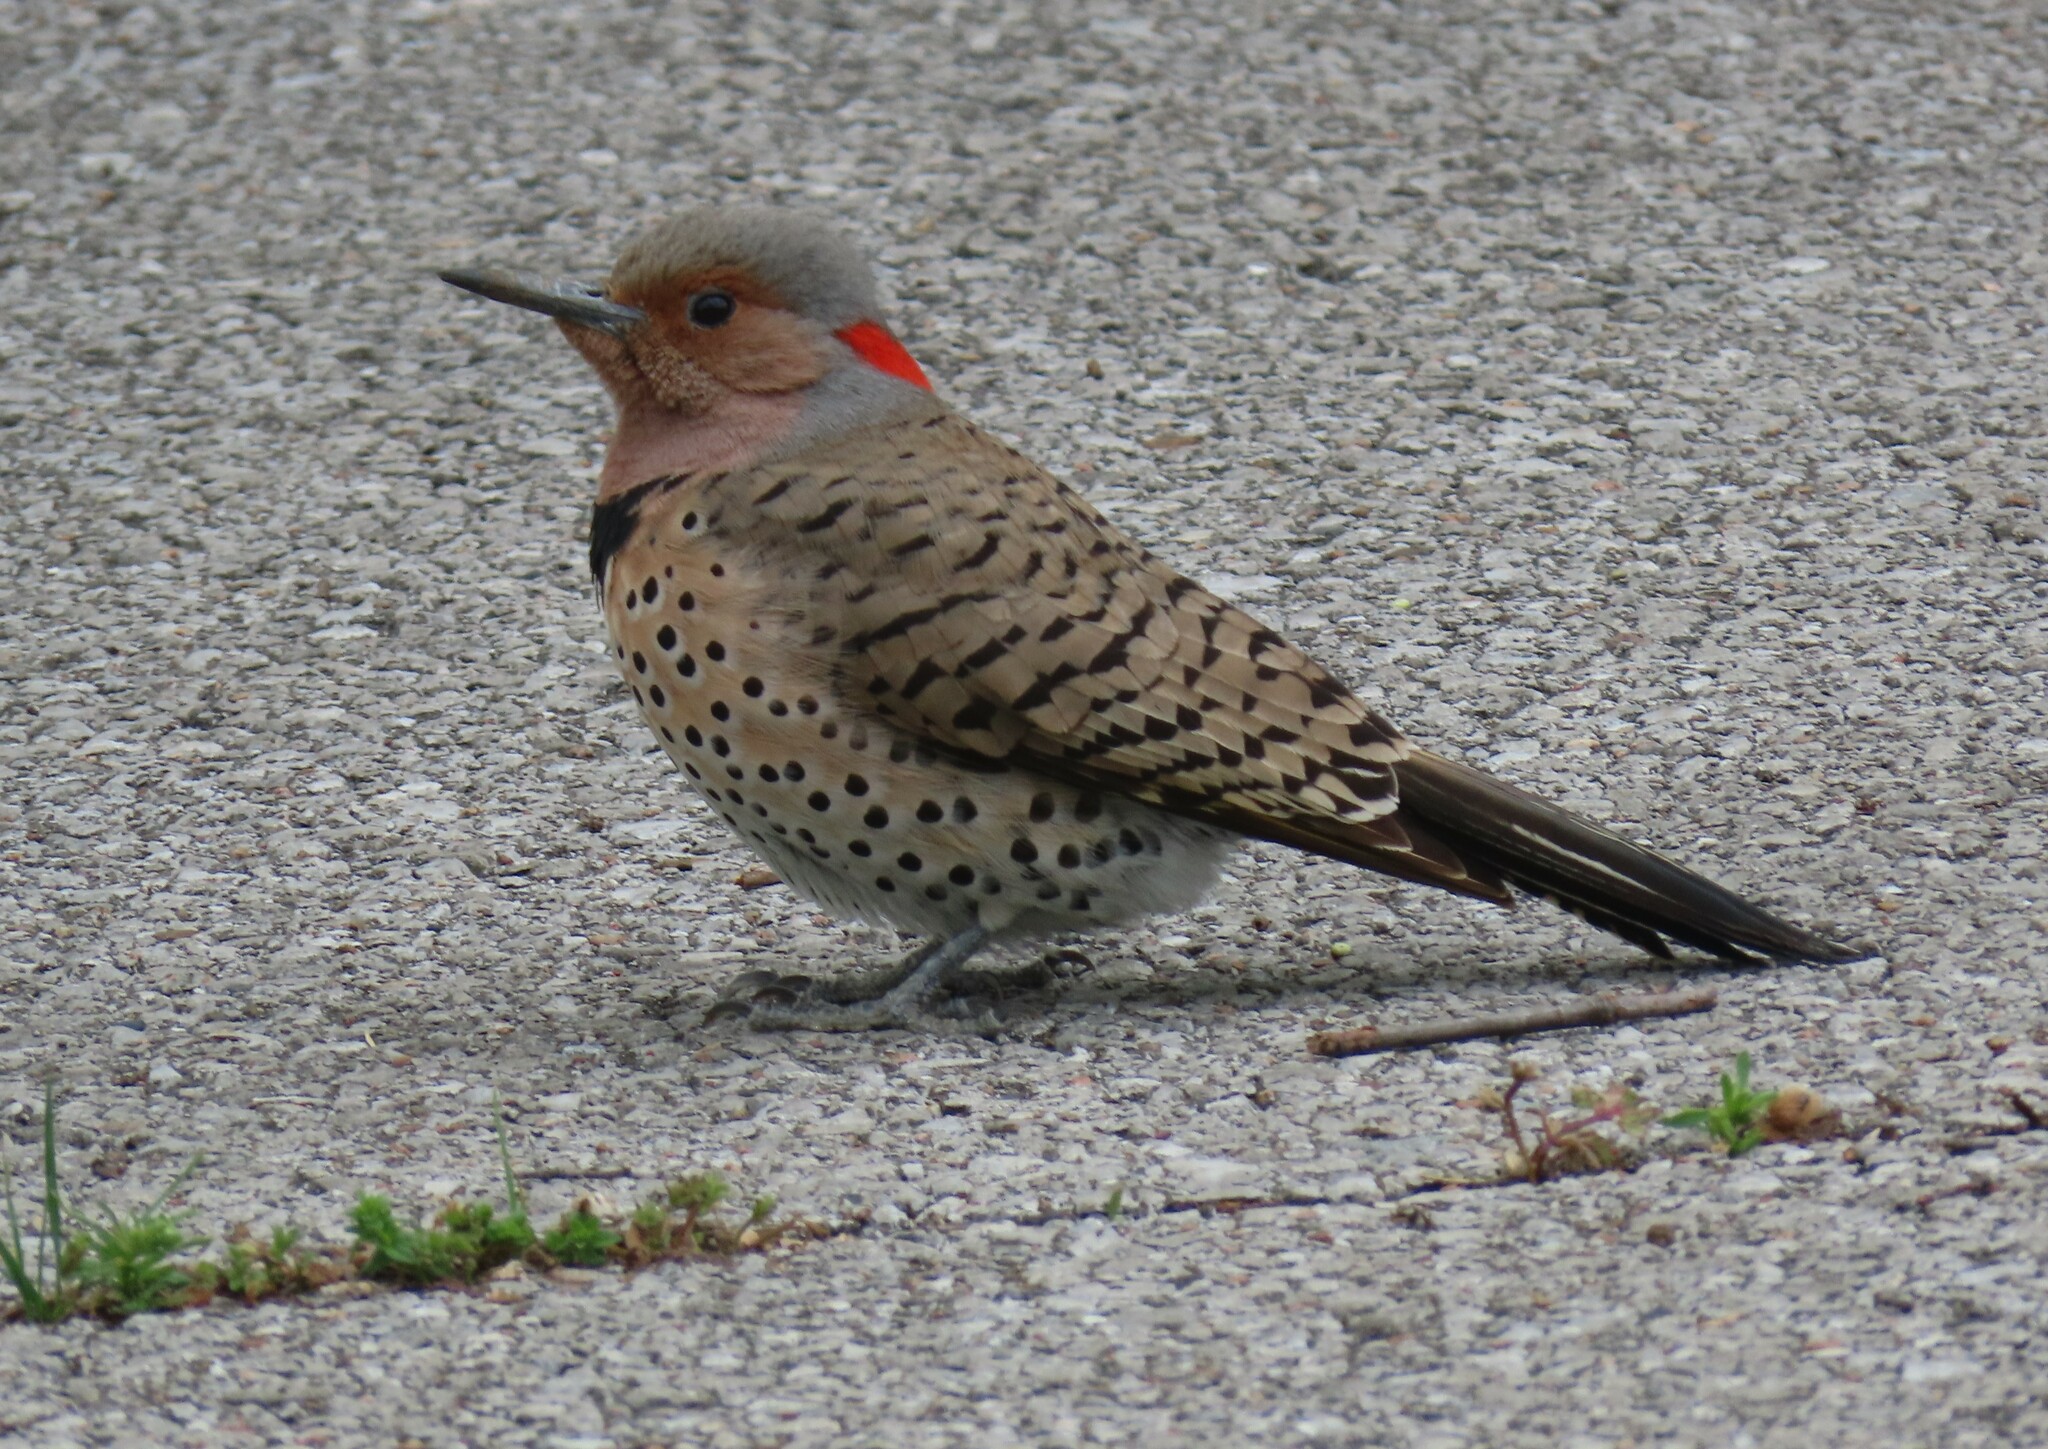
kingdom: Animalia
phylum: Chordata
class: Aves
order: Piciformes
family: Picidae
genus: Colaptes
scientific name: Colaptes auratus
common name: Northern flicker
